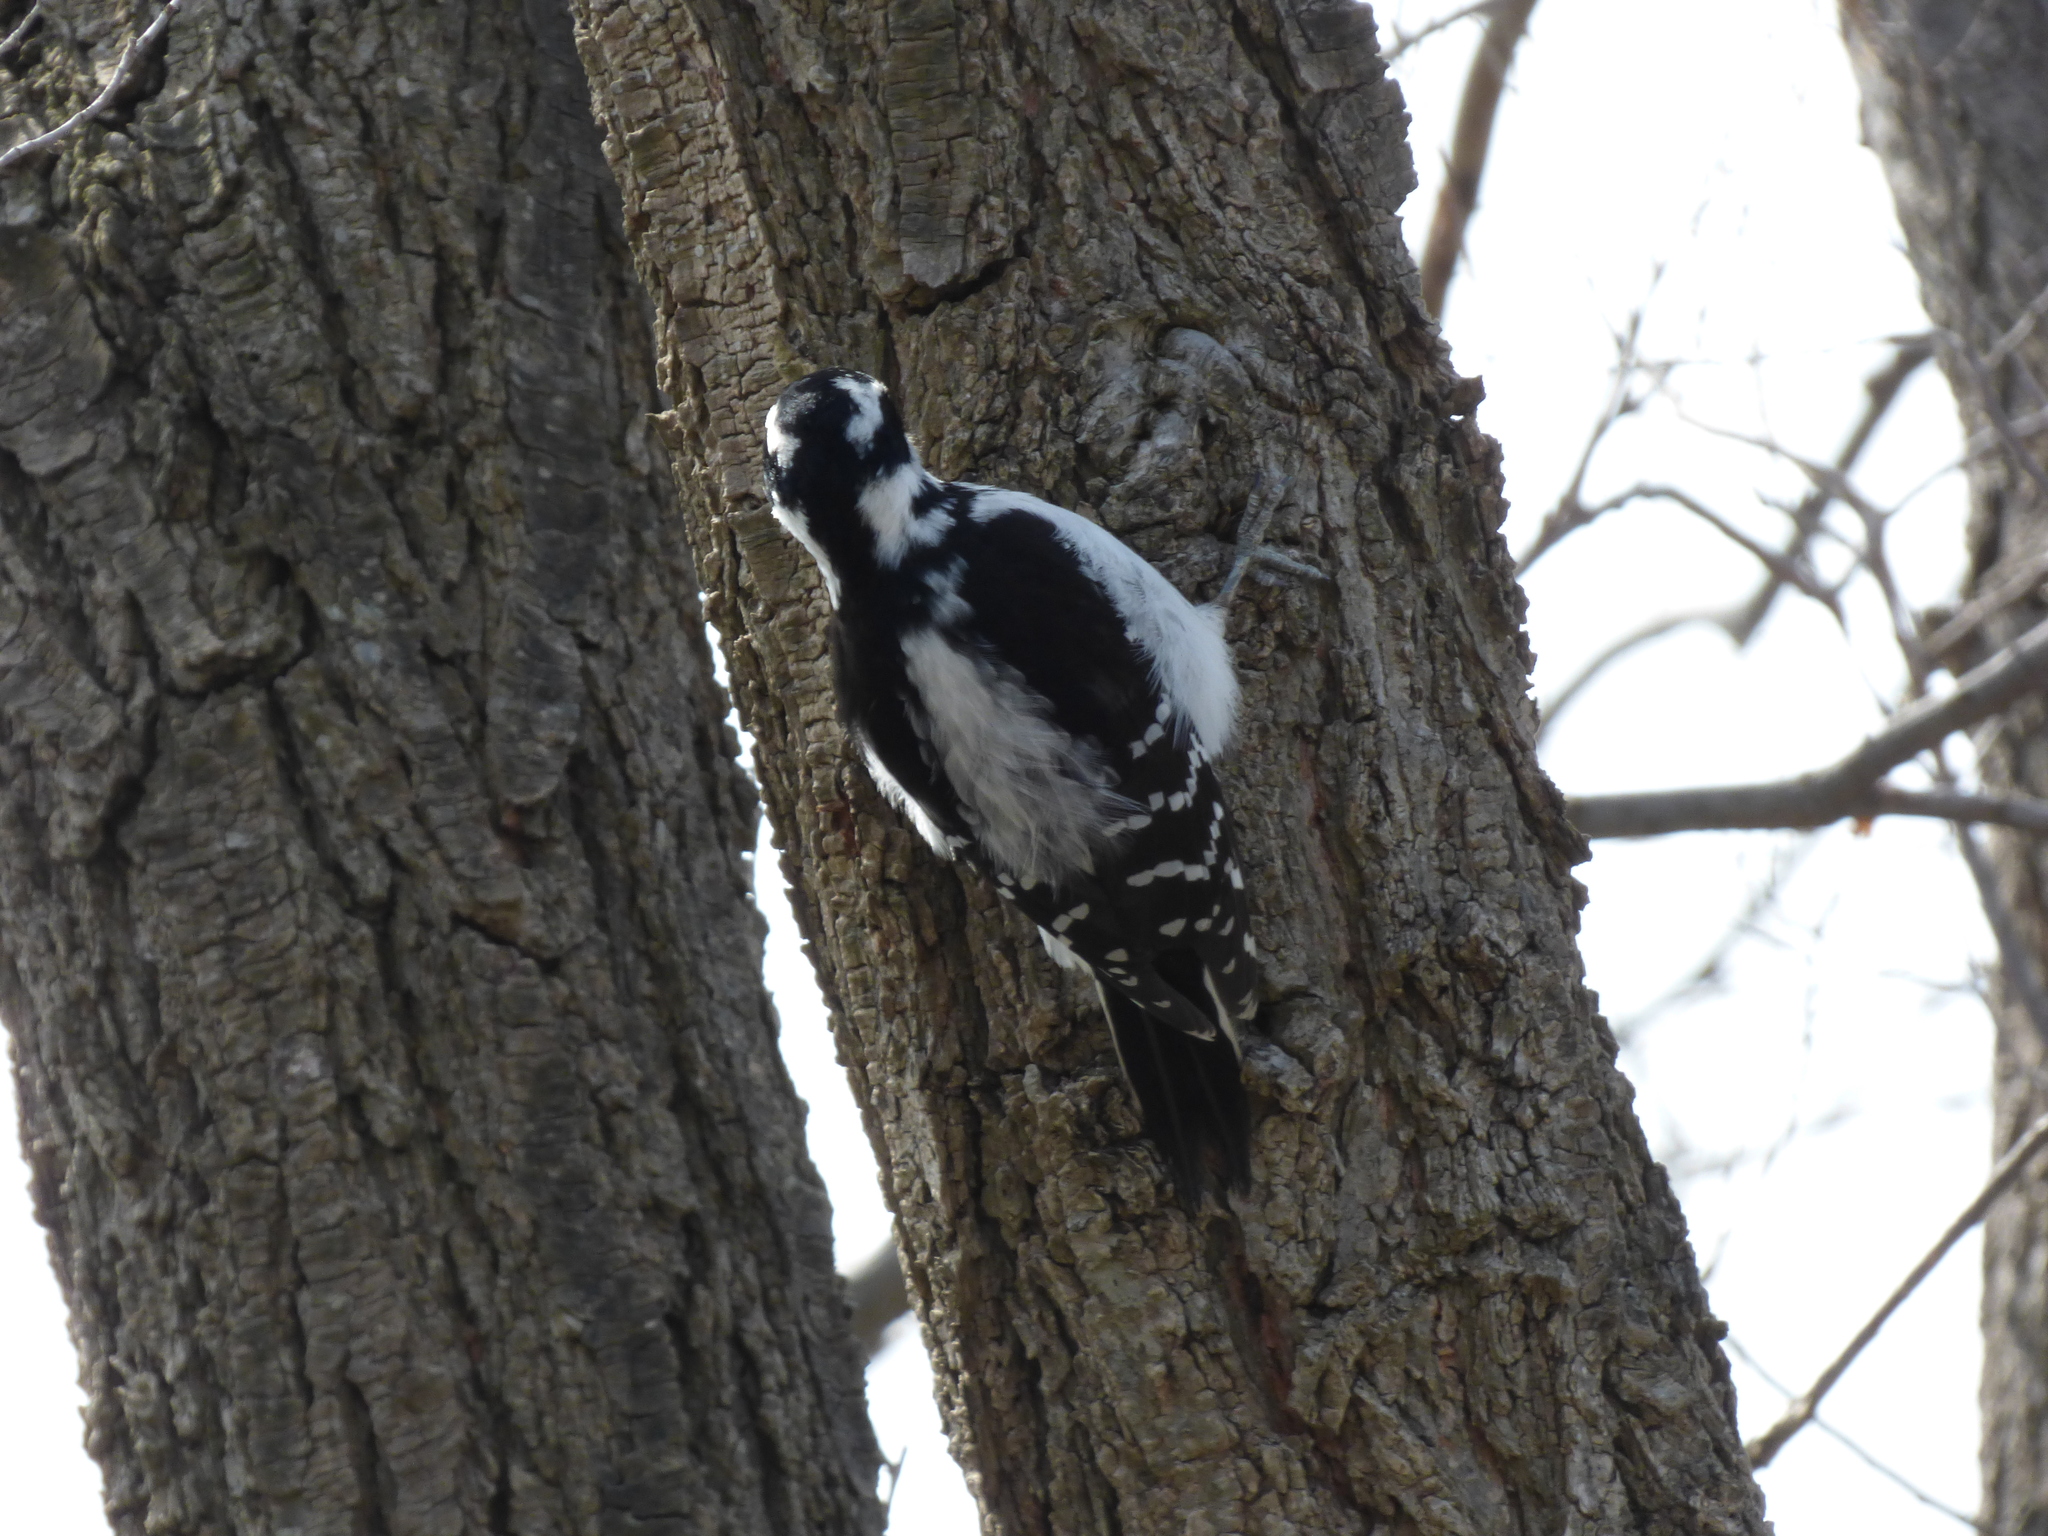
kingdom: Animalia
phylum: Chordata
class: Aves
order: Piciformes
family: Picidae
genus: Leuconotopicus
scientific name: Leuconotopicus villosus
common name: Hairy woodpecker
